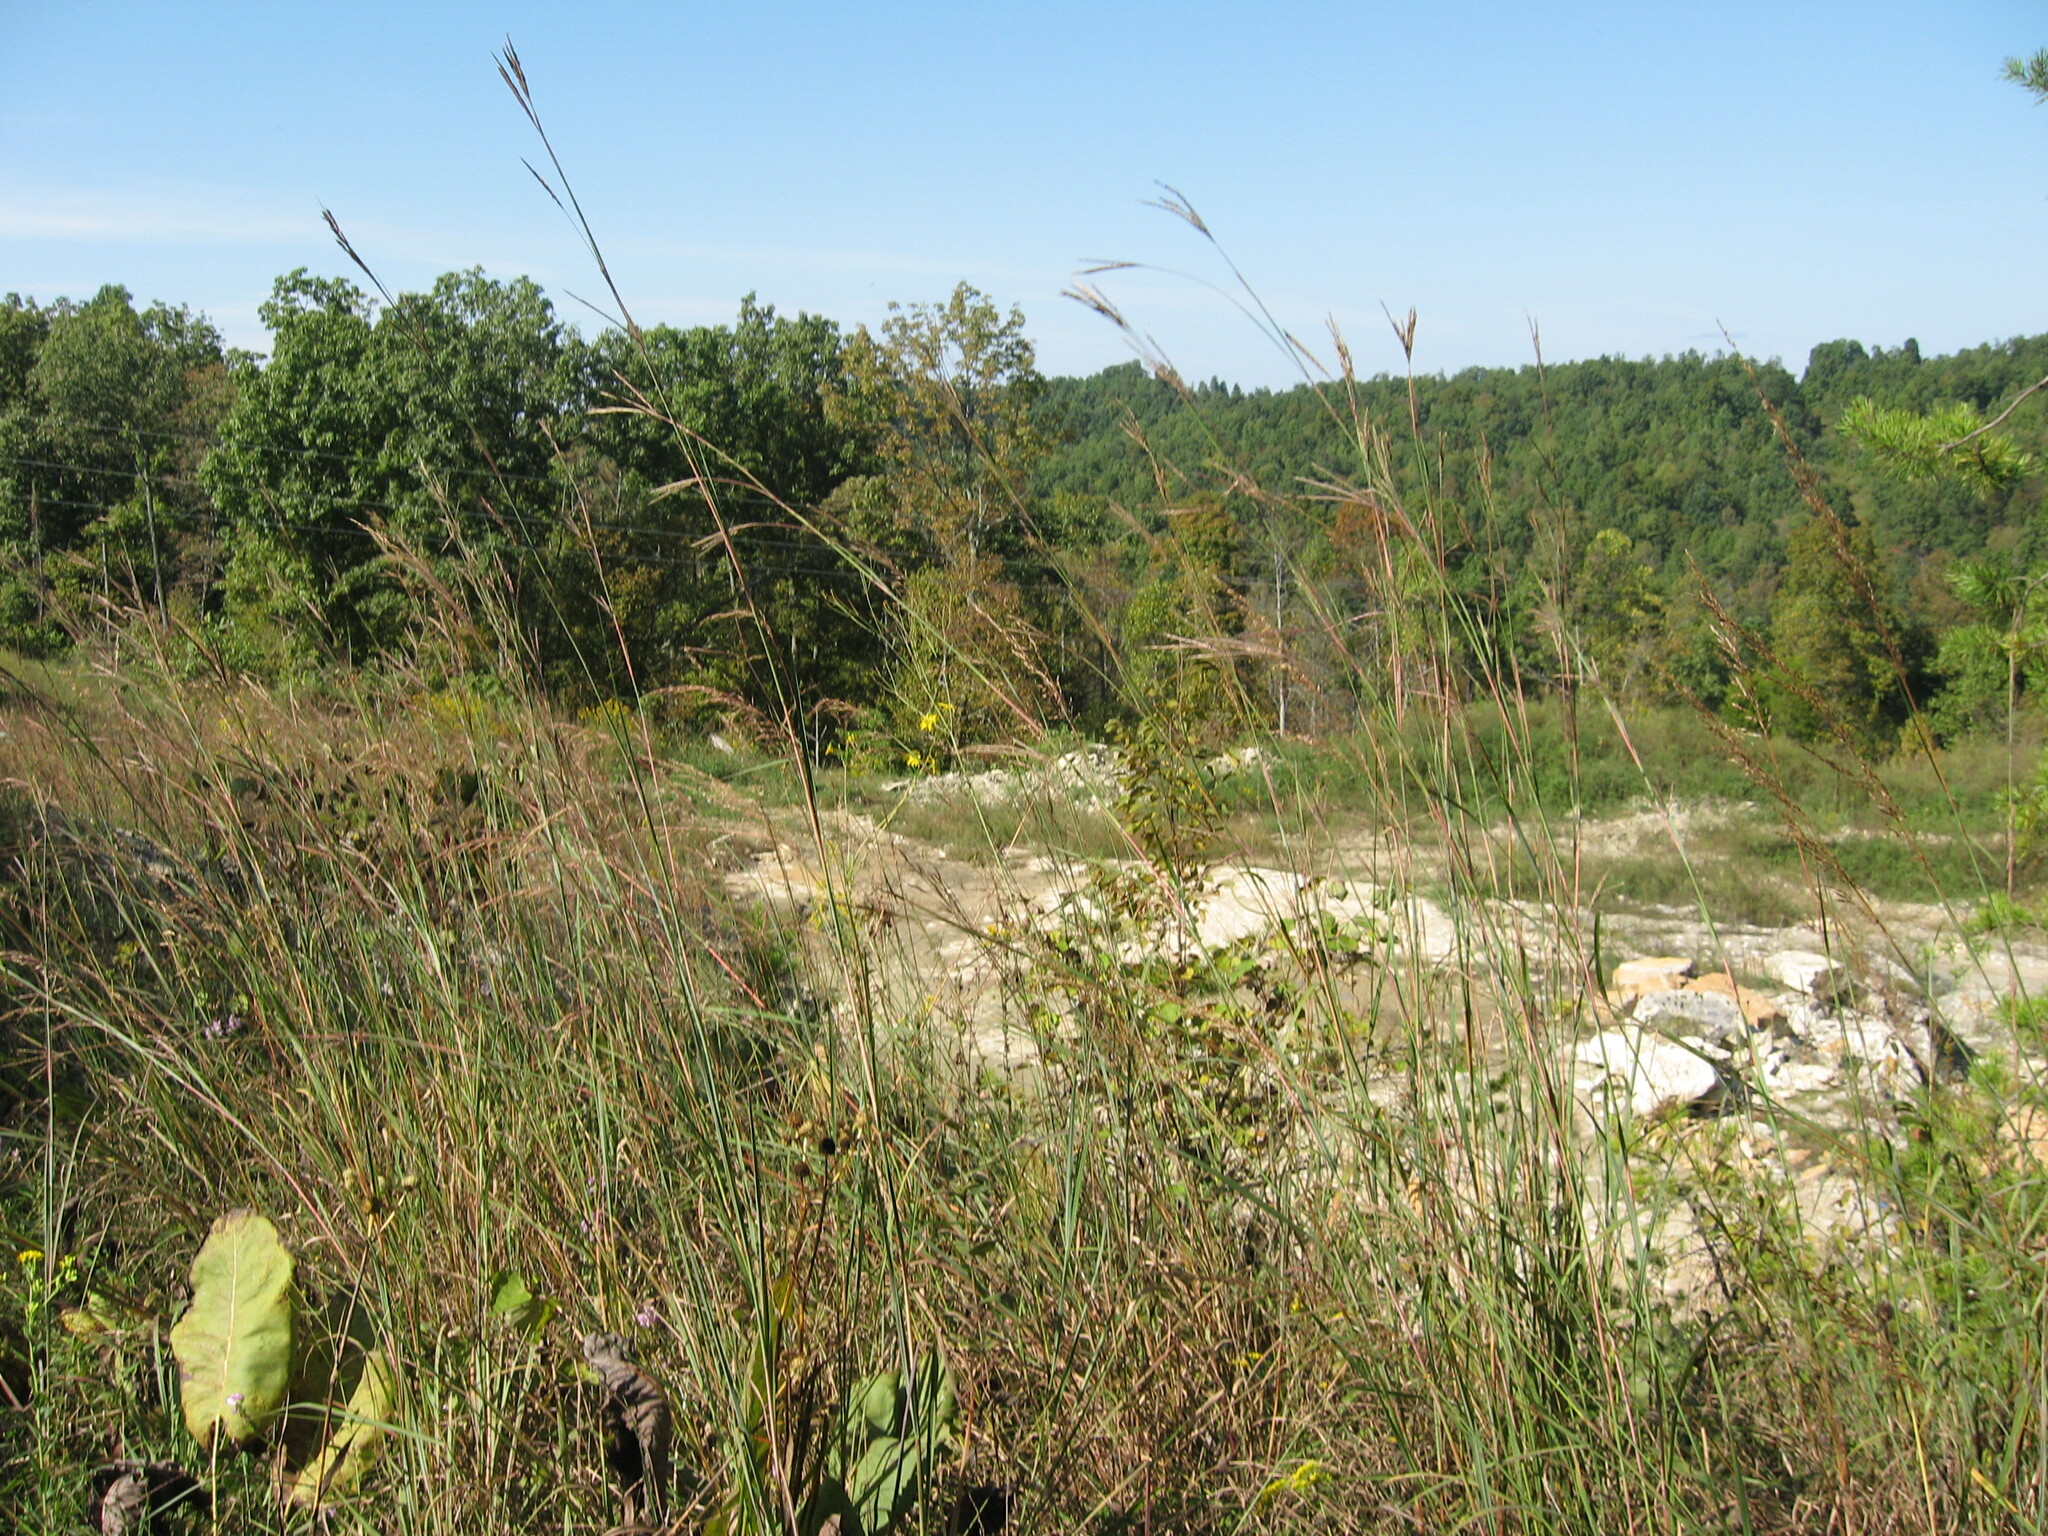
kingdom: Plantae
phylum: Tracheophyta
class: Liliopsida
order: Poales
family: Poaceae
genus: Andropogon
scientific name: Andropogon gerardi
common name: Big bluestem
